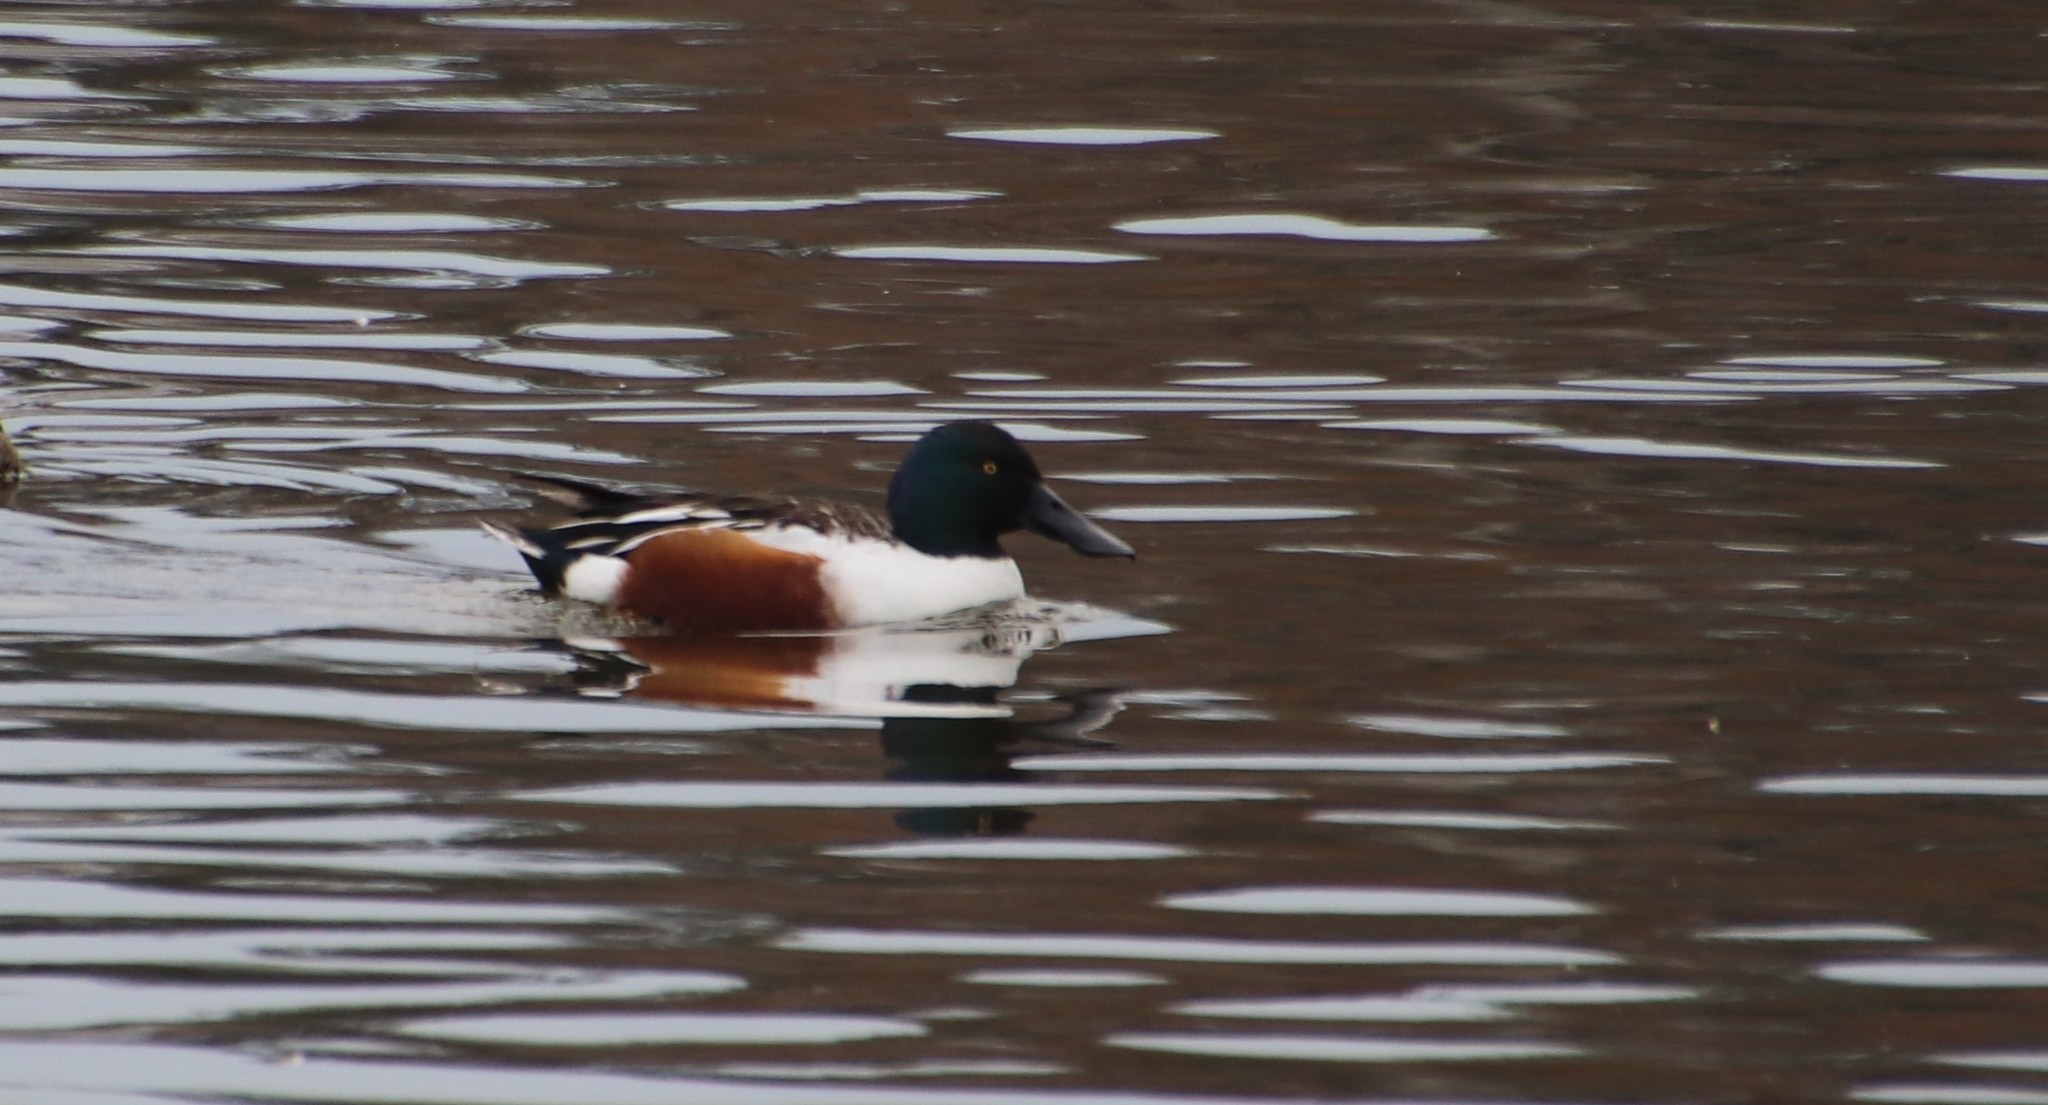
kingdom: Animalia
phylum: Chordata
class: Aves
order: Anseriformes
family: Anatidae
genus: Spatula
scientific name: Spatula clypeata
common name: Northern shoveler
